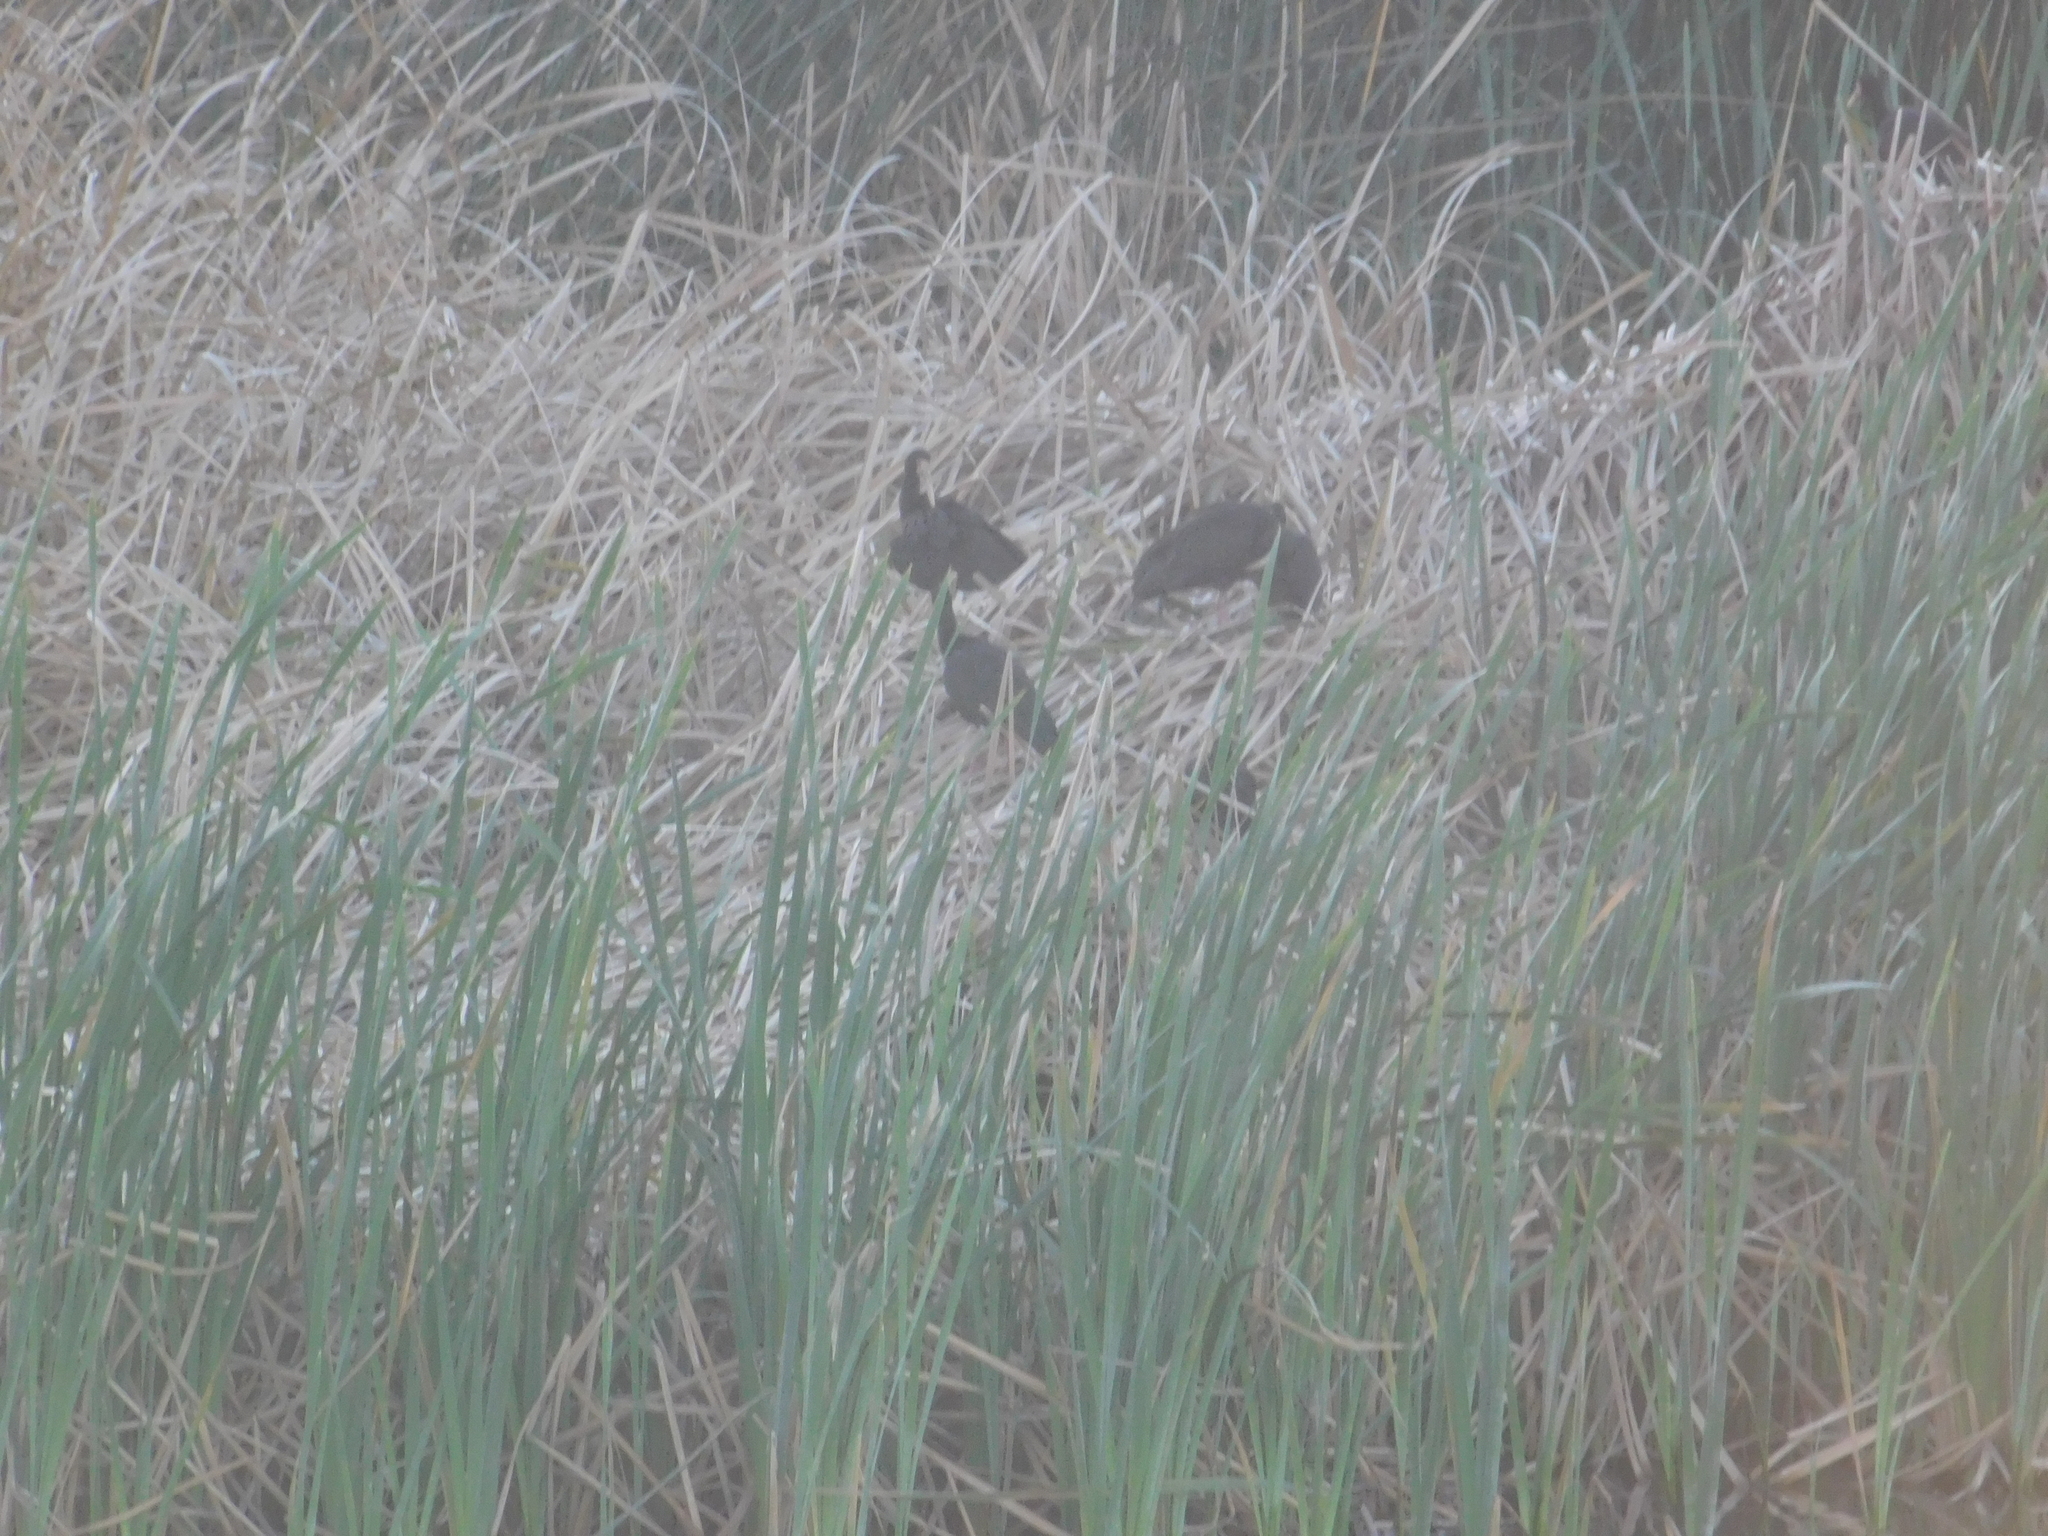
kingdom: Animalia
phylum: Chordata
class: Aves
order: Pelecaniformes
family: Threskiornithidae
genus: Phimosus
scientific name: Phimosus infuscatus
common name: Bare-faced ibis
